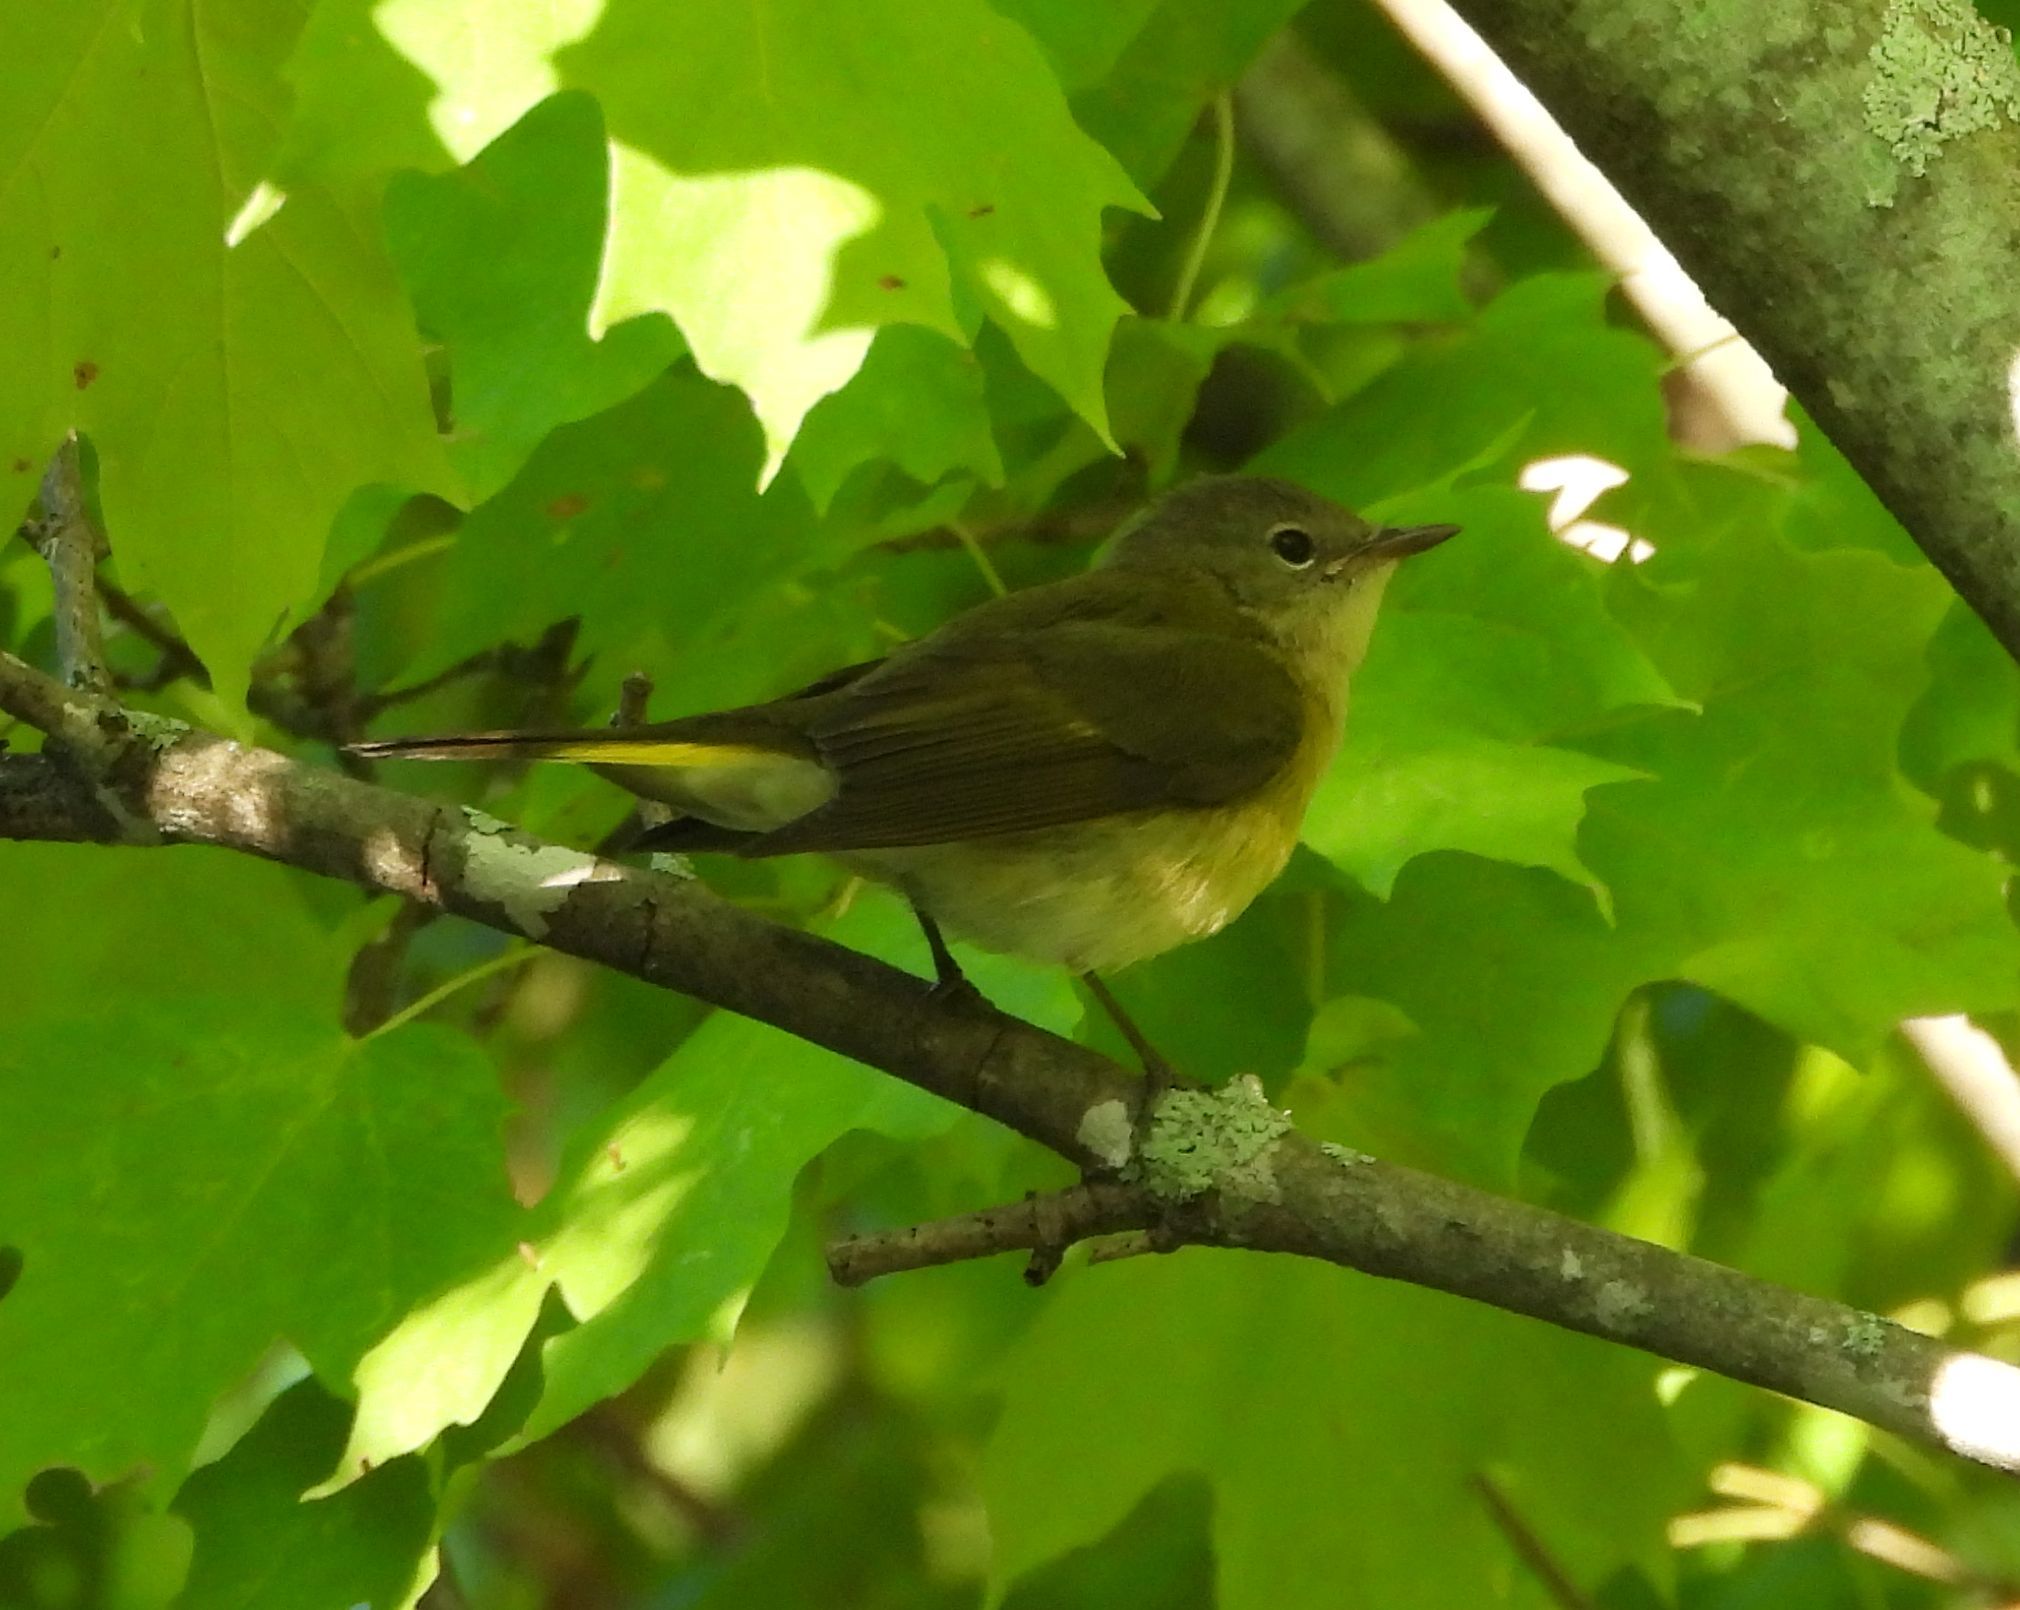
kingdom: Animalia
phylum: Chordata
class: Aves
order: Passeriformes
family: Parulidae
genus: Setophaga
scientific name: Setophaga ruticilla
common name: American redstart
